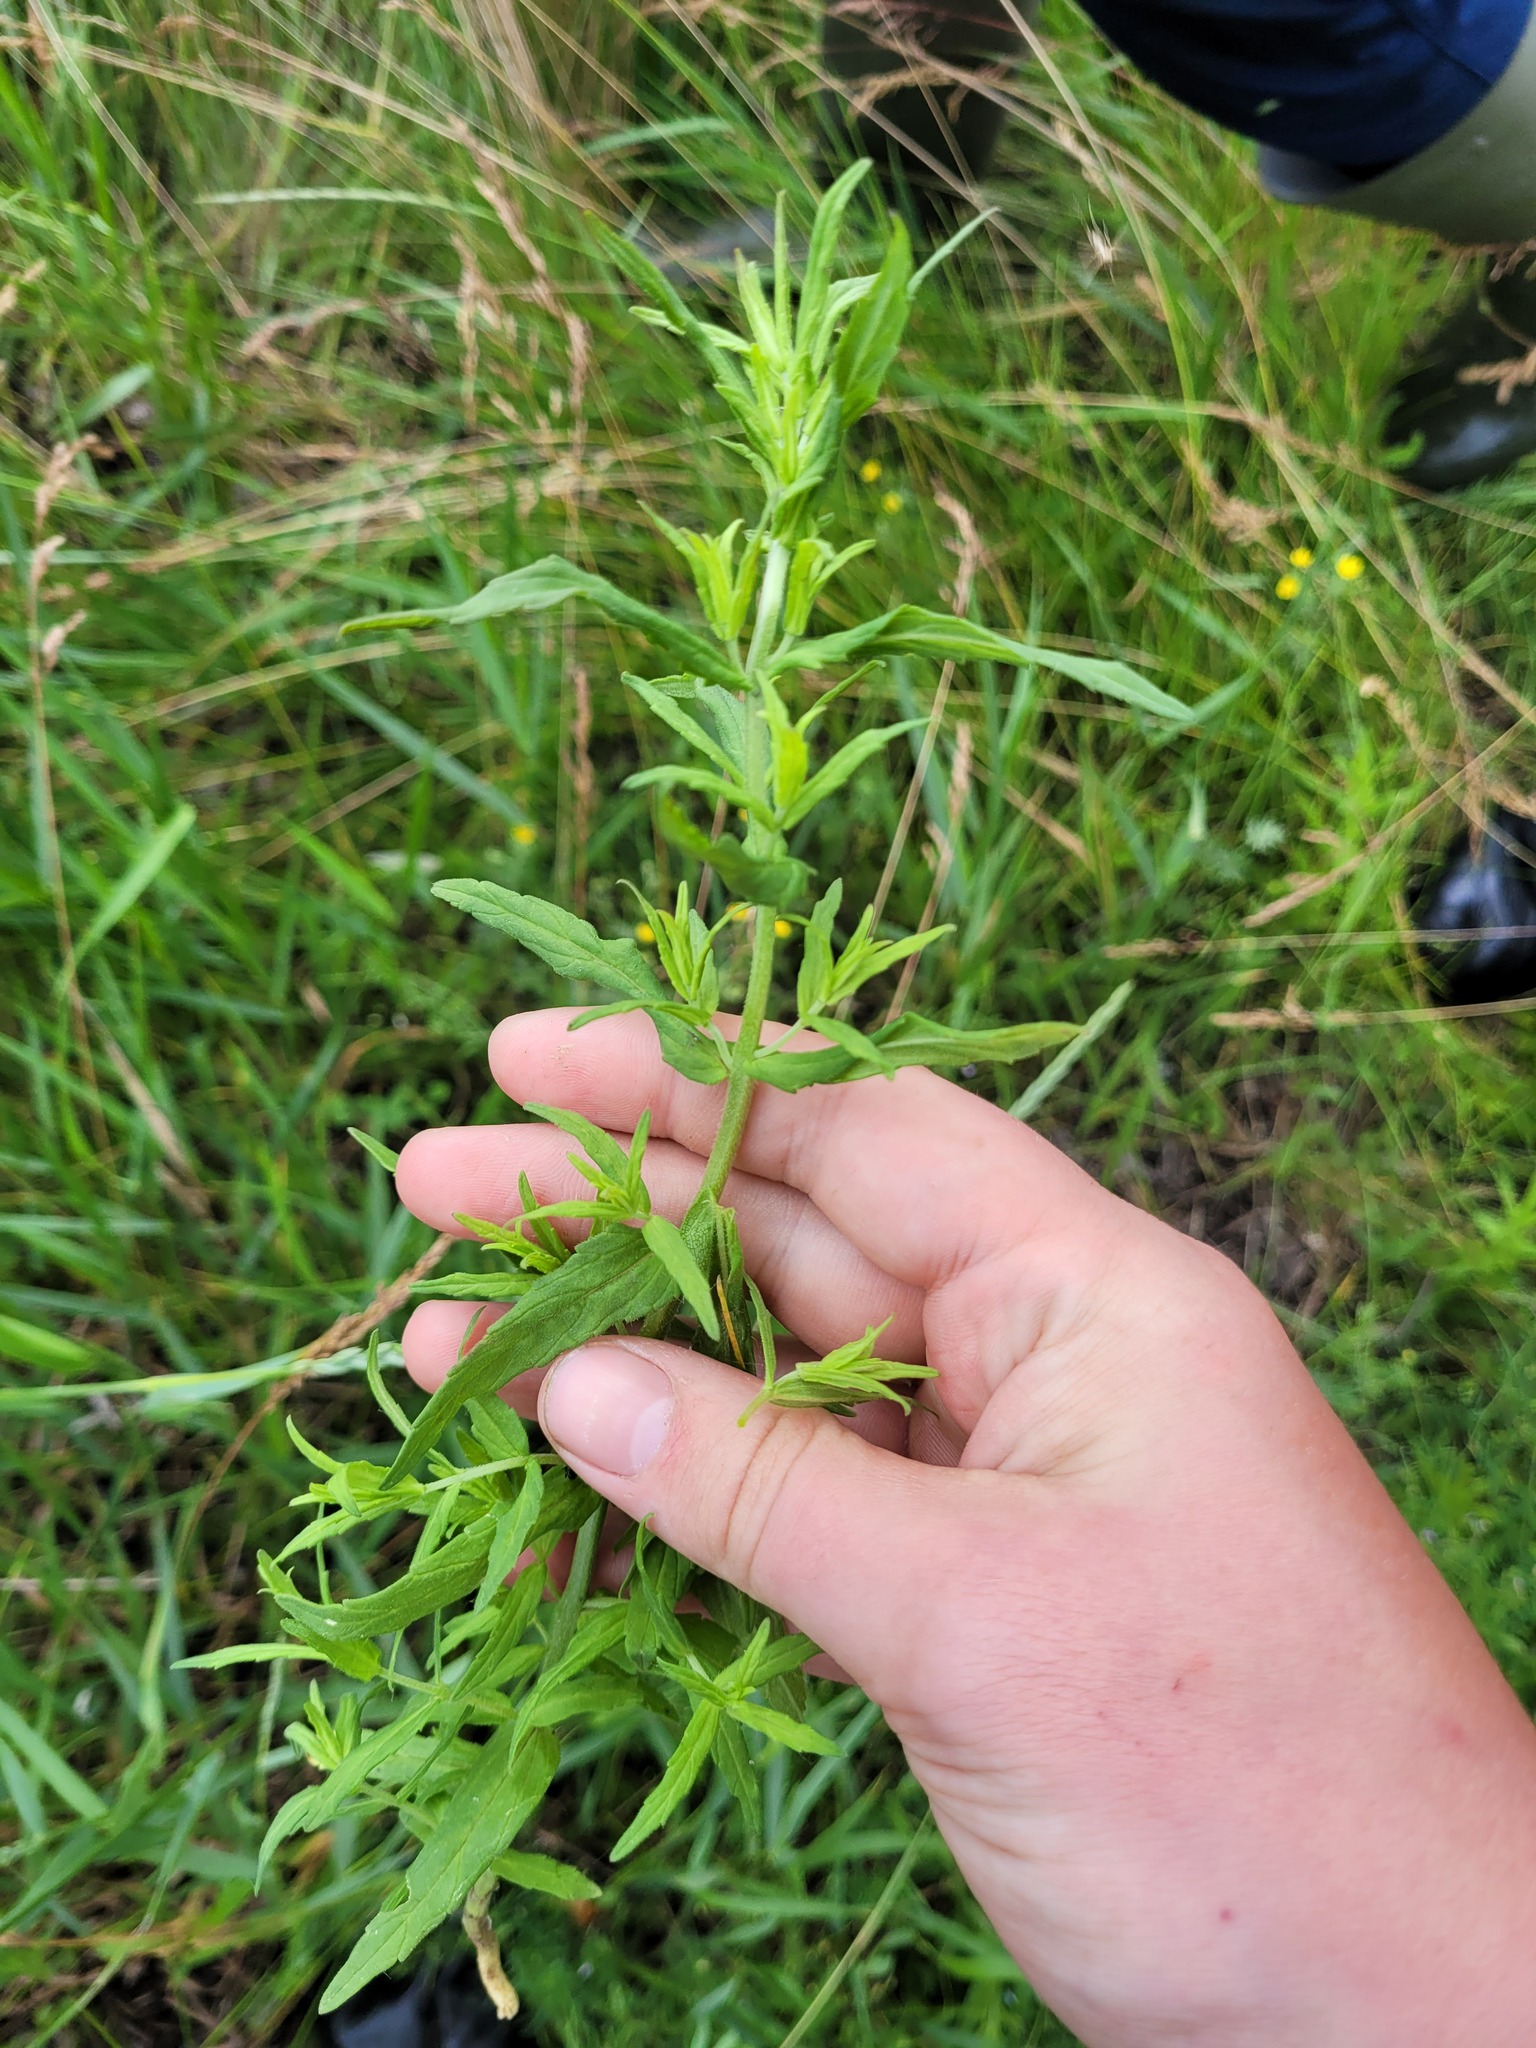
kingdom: Plantae
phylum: Tracheophyta
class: Magnoliopsida
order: Lamiales
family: Orobanchaceae
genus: Odontites
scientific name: Odontites vulgaris
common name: Broomrape
